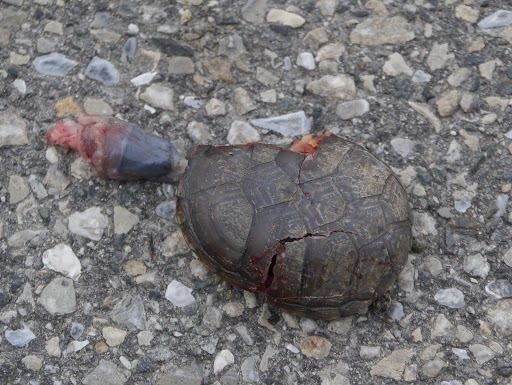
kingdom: Animalia
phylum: Chordata
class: Testudines
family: Kinosternidae
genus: Kinosternon
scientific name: Kinosternon subrubrum
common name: Eastern mud turtle
